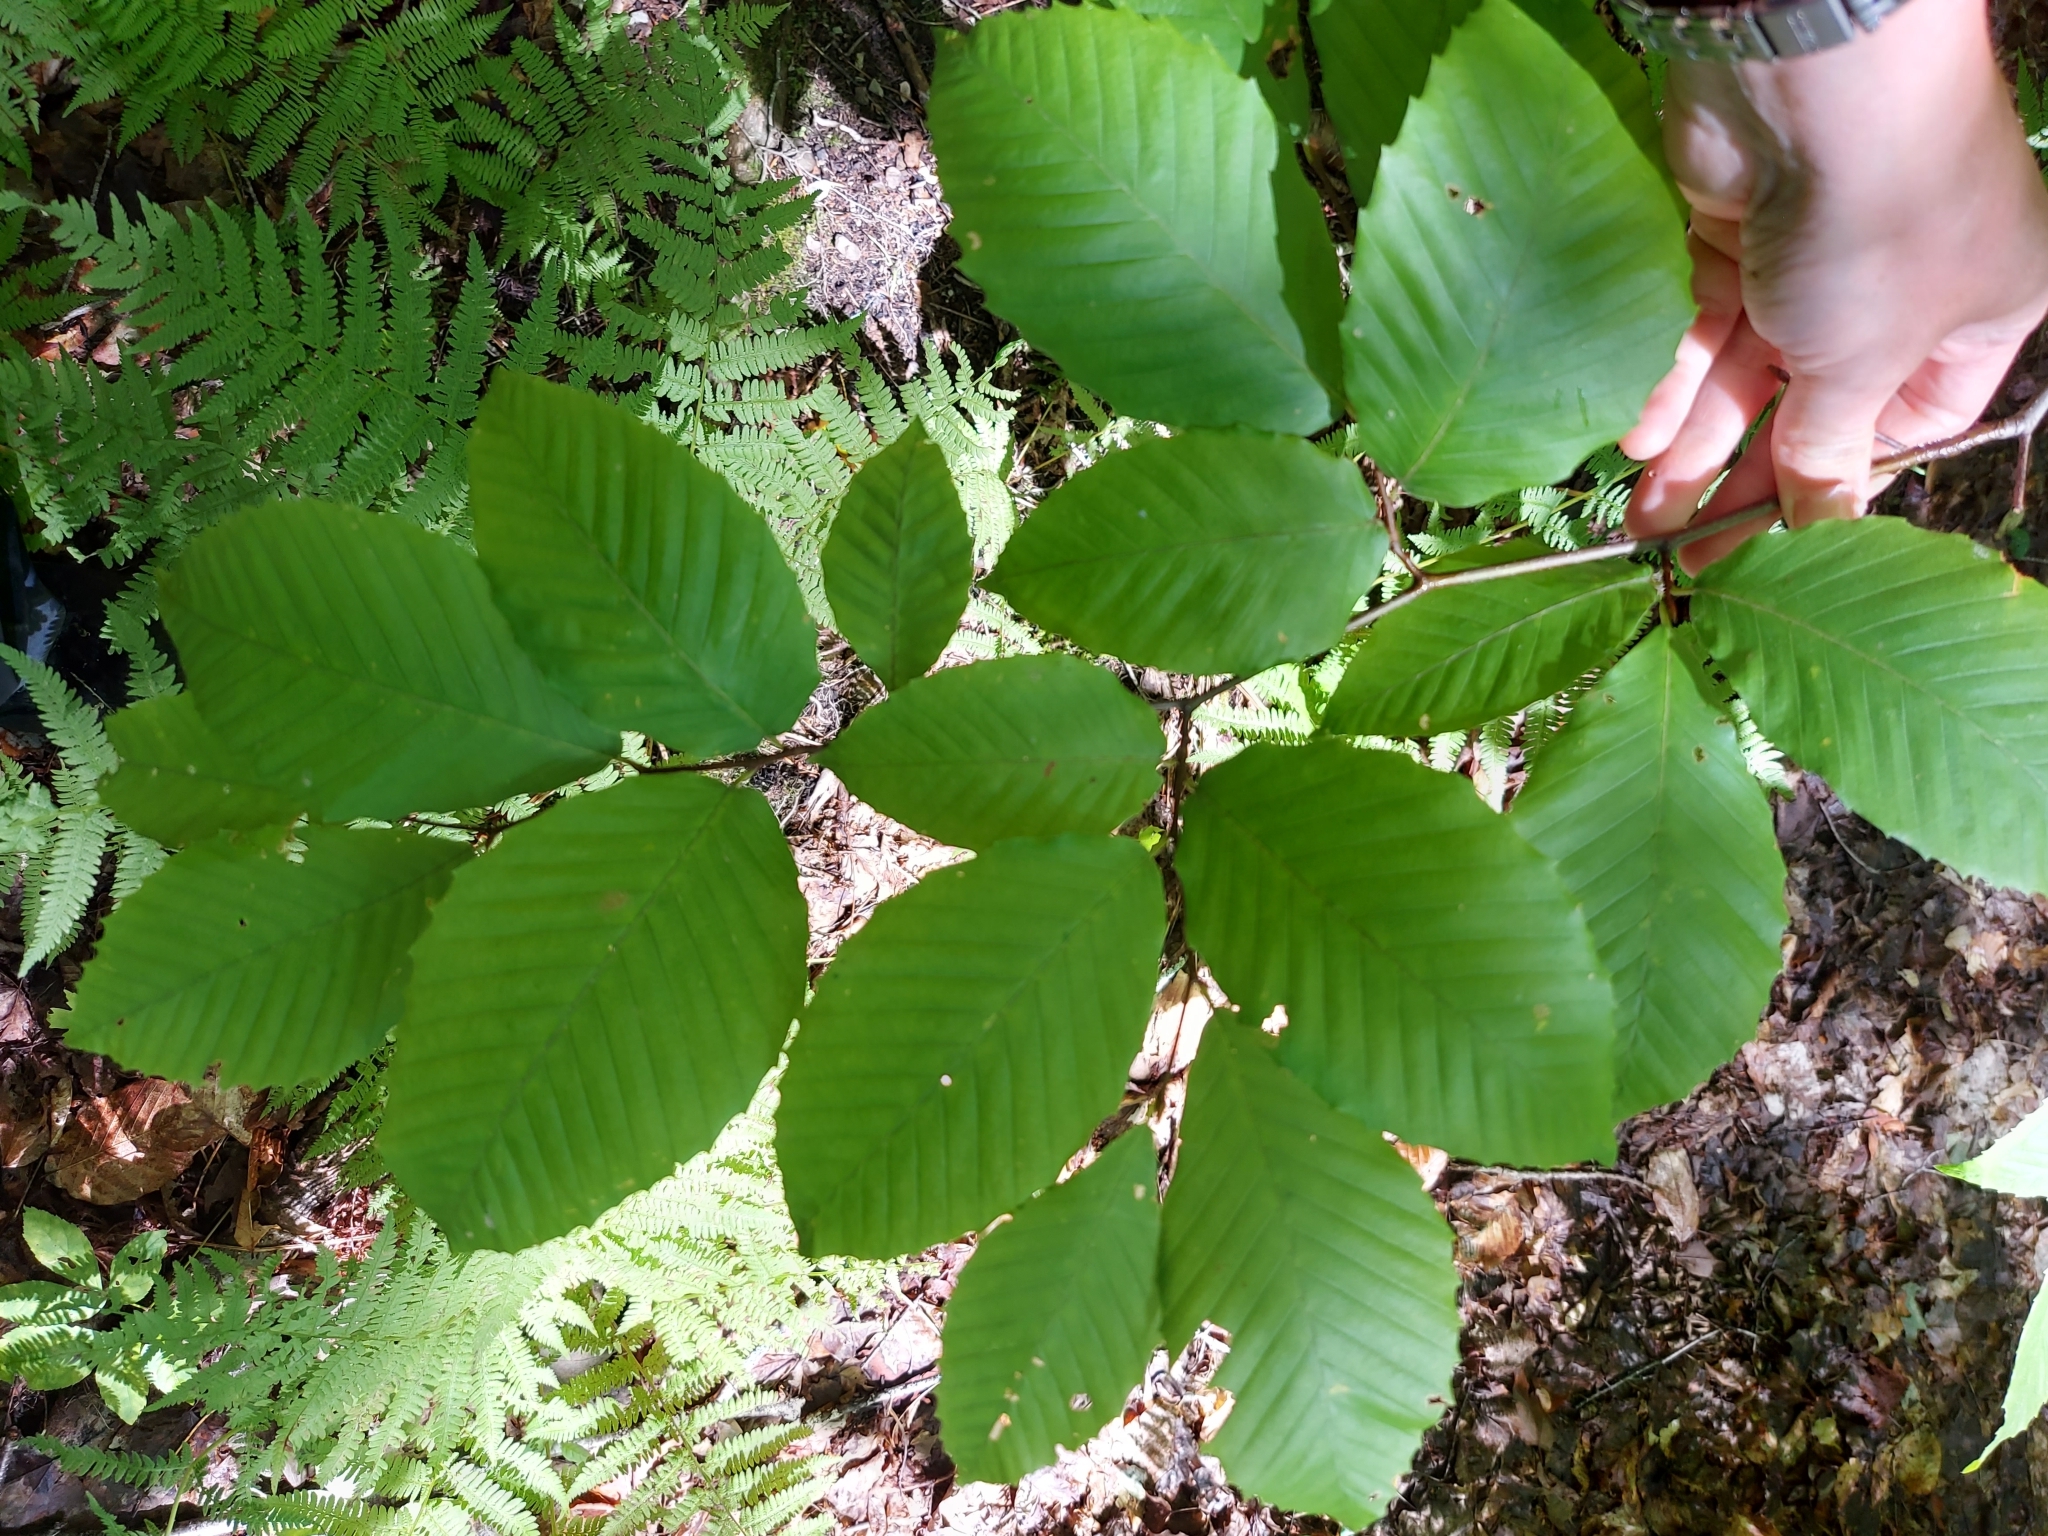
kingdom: Plantae
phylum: Tracheophyta
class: Magnoliopsida
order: Fagales
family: Fagaceae
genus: Fagus
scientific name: Fagus grandifolia
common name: American beech
